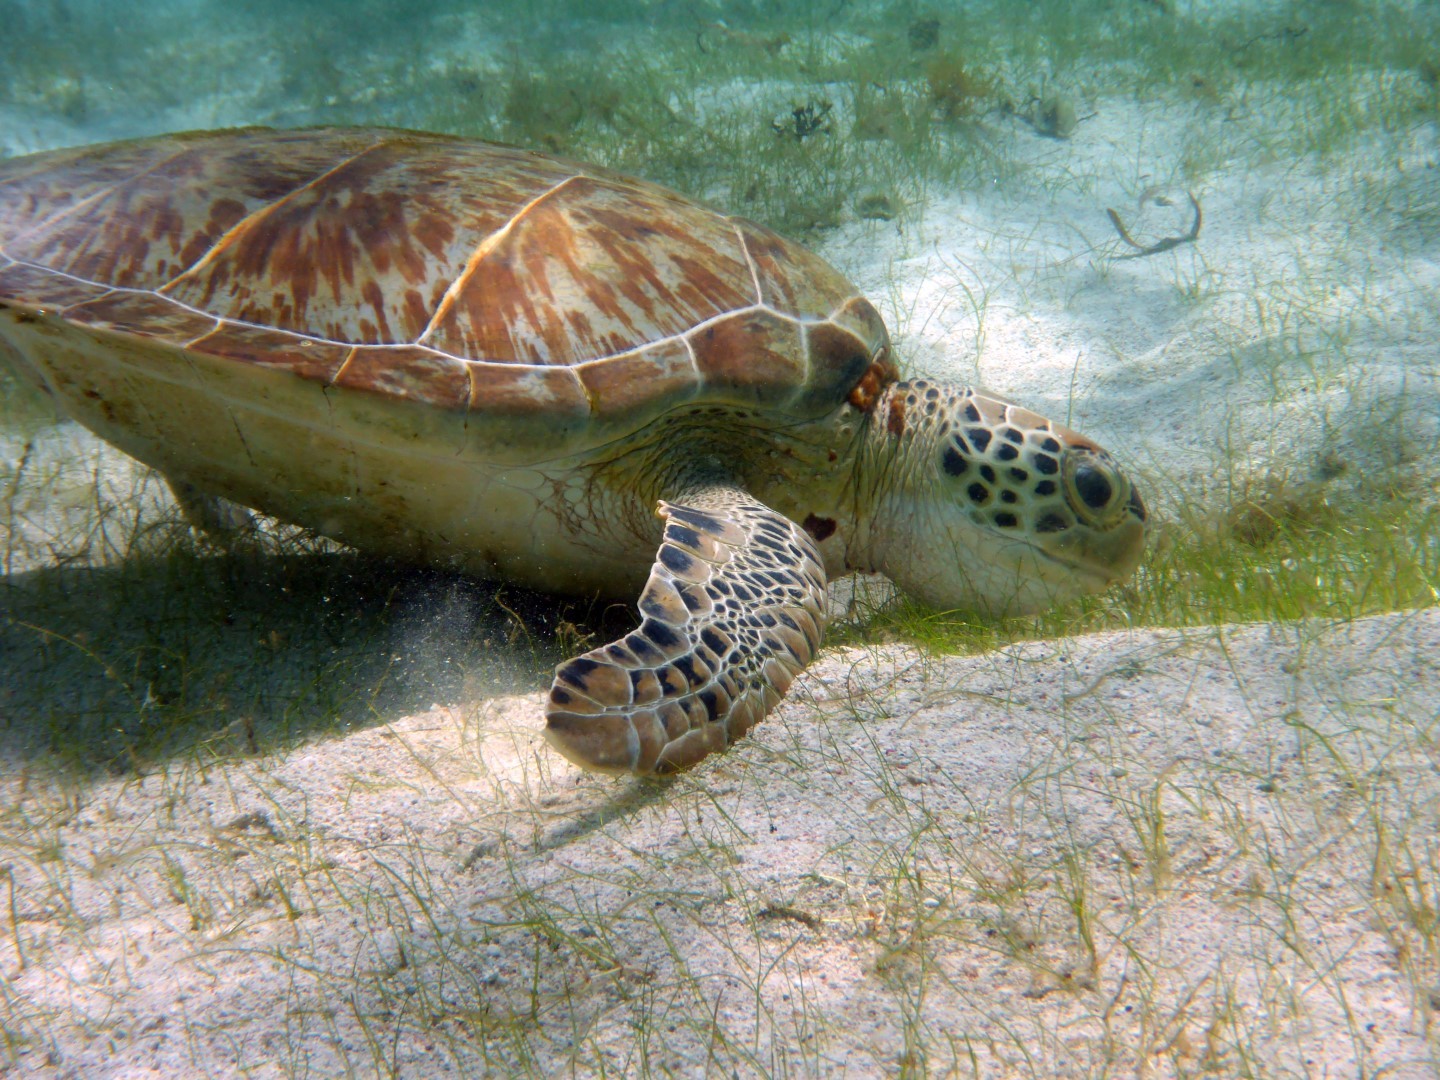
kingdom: Animalia
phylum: Chordata
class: Testudines
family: Cheloniidae
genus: Chelonia
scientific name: Chelonia mydas
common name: Green turtle
